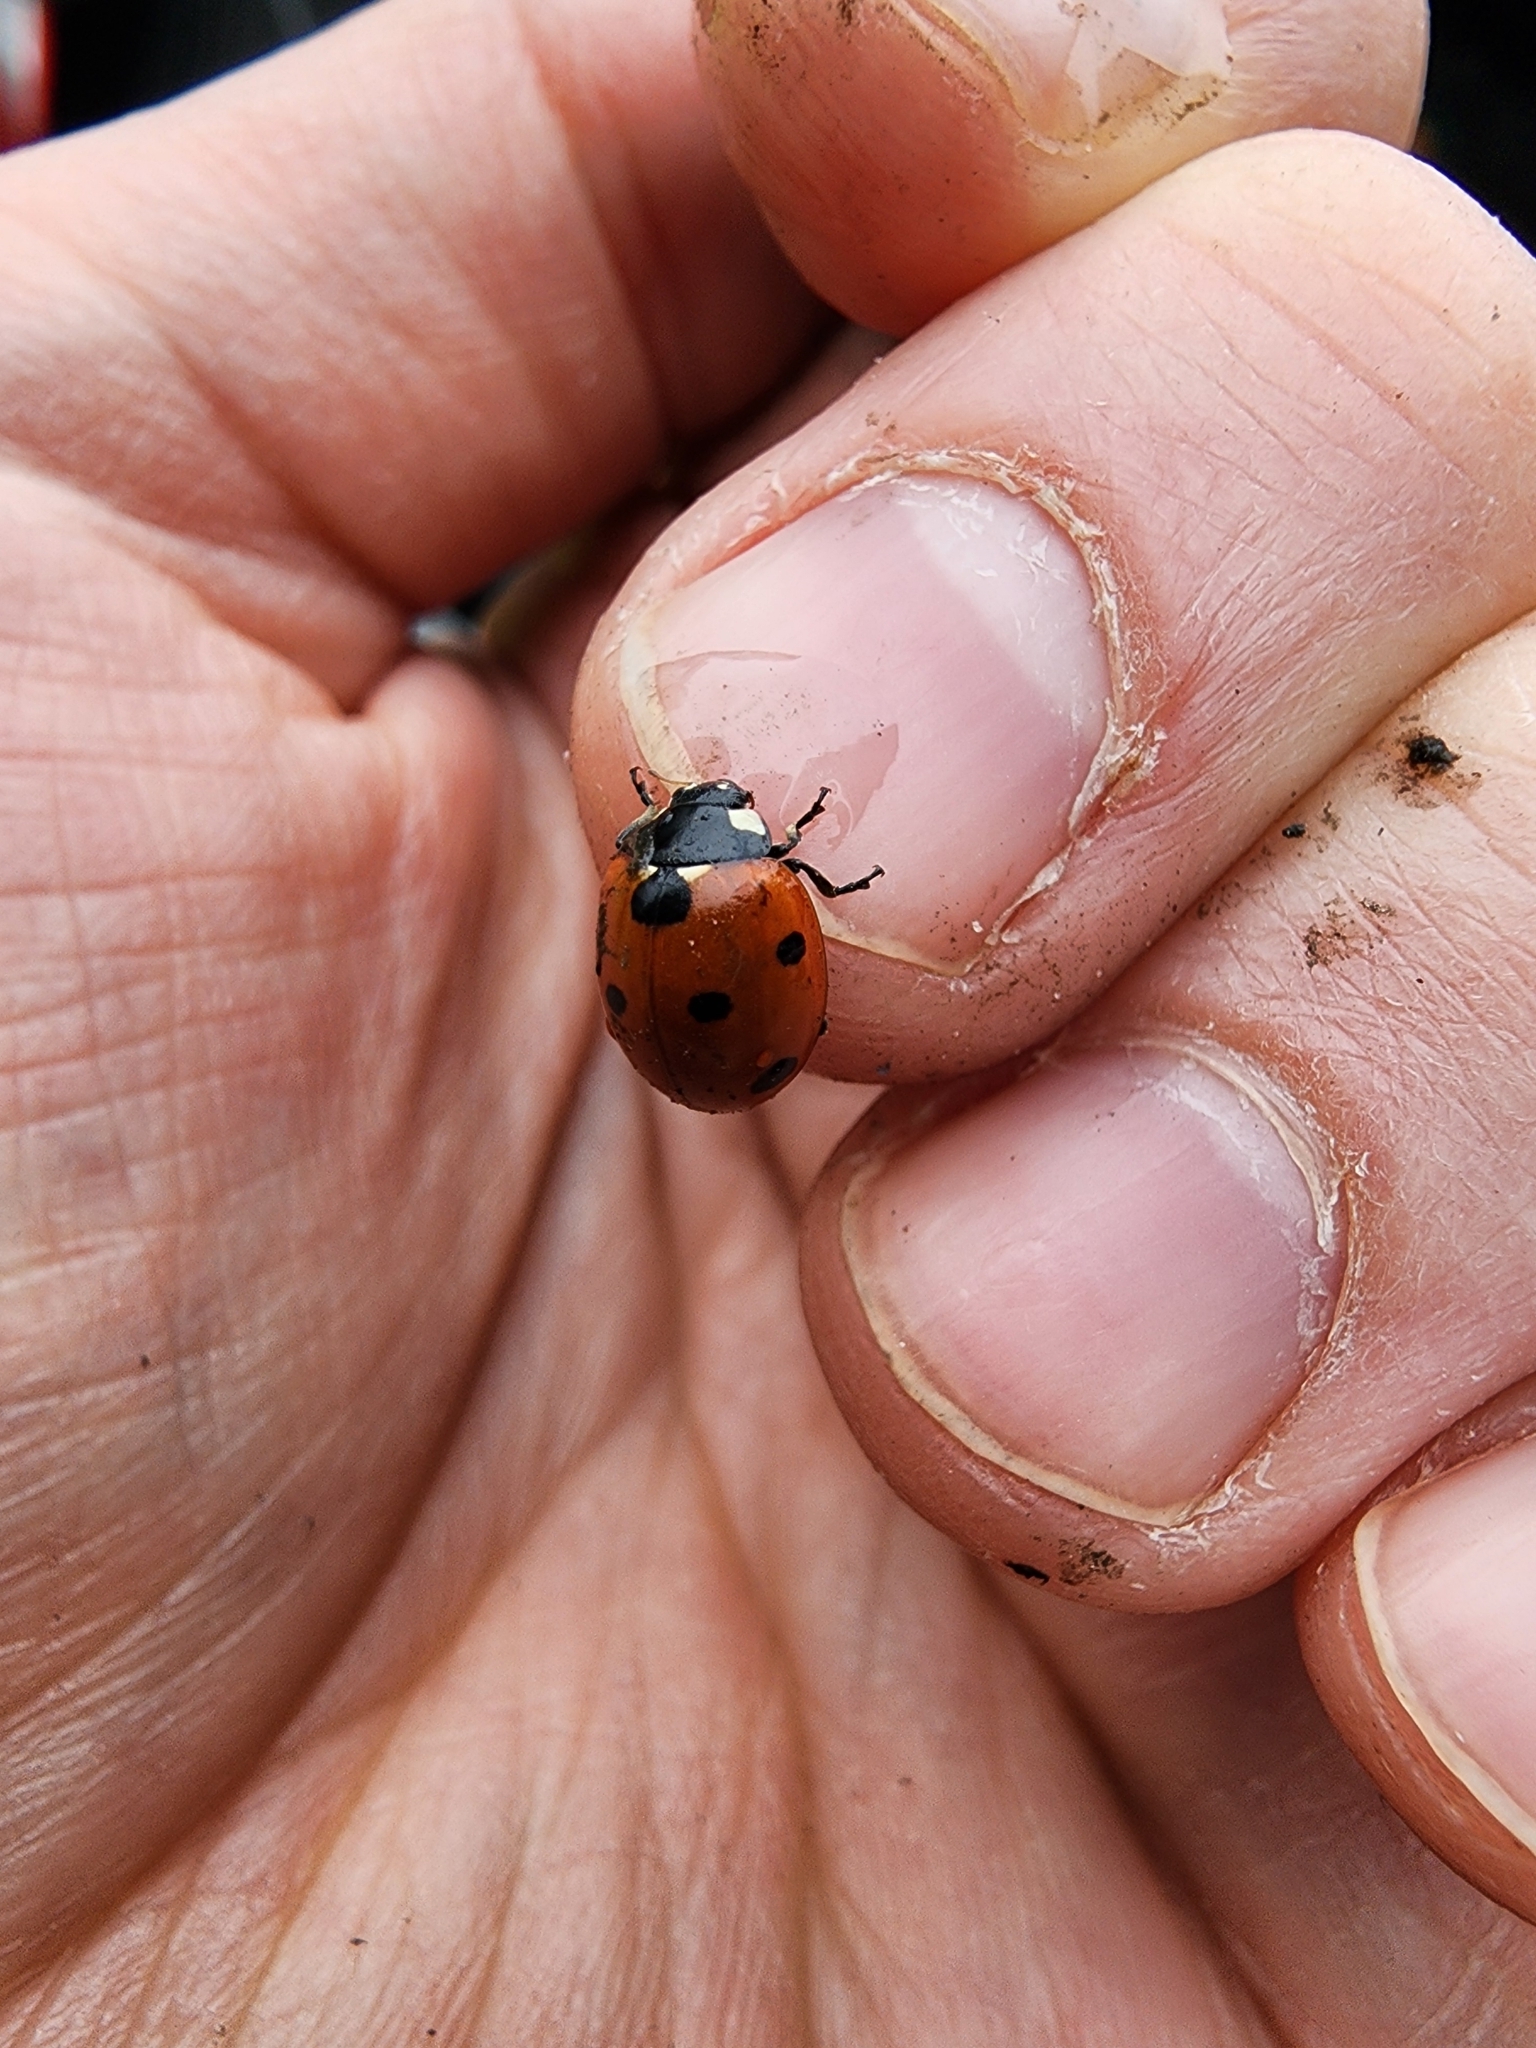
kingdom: Animalia
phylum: Arthropoda
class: Insecta
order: Coleoptera
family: Coccinellidae
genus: Coccinella
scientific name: Coccinella septempunctata
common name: Sevenspotted lady beetle
